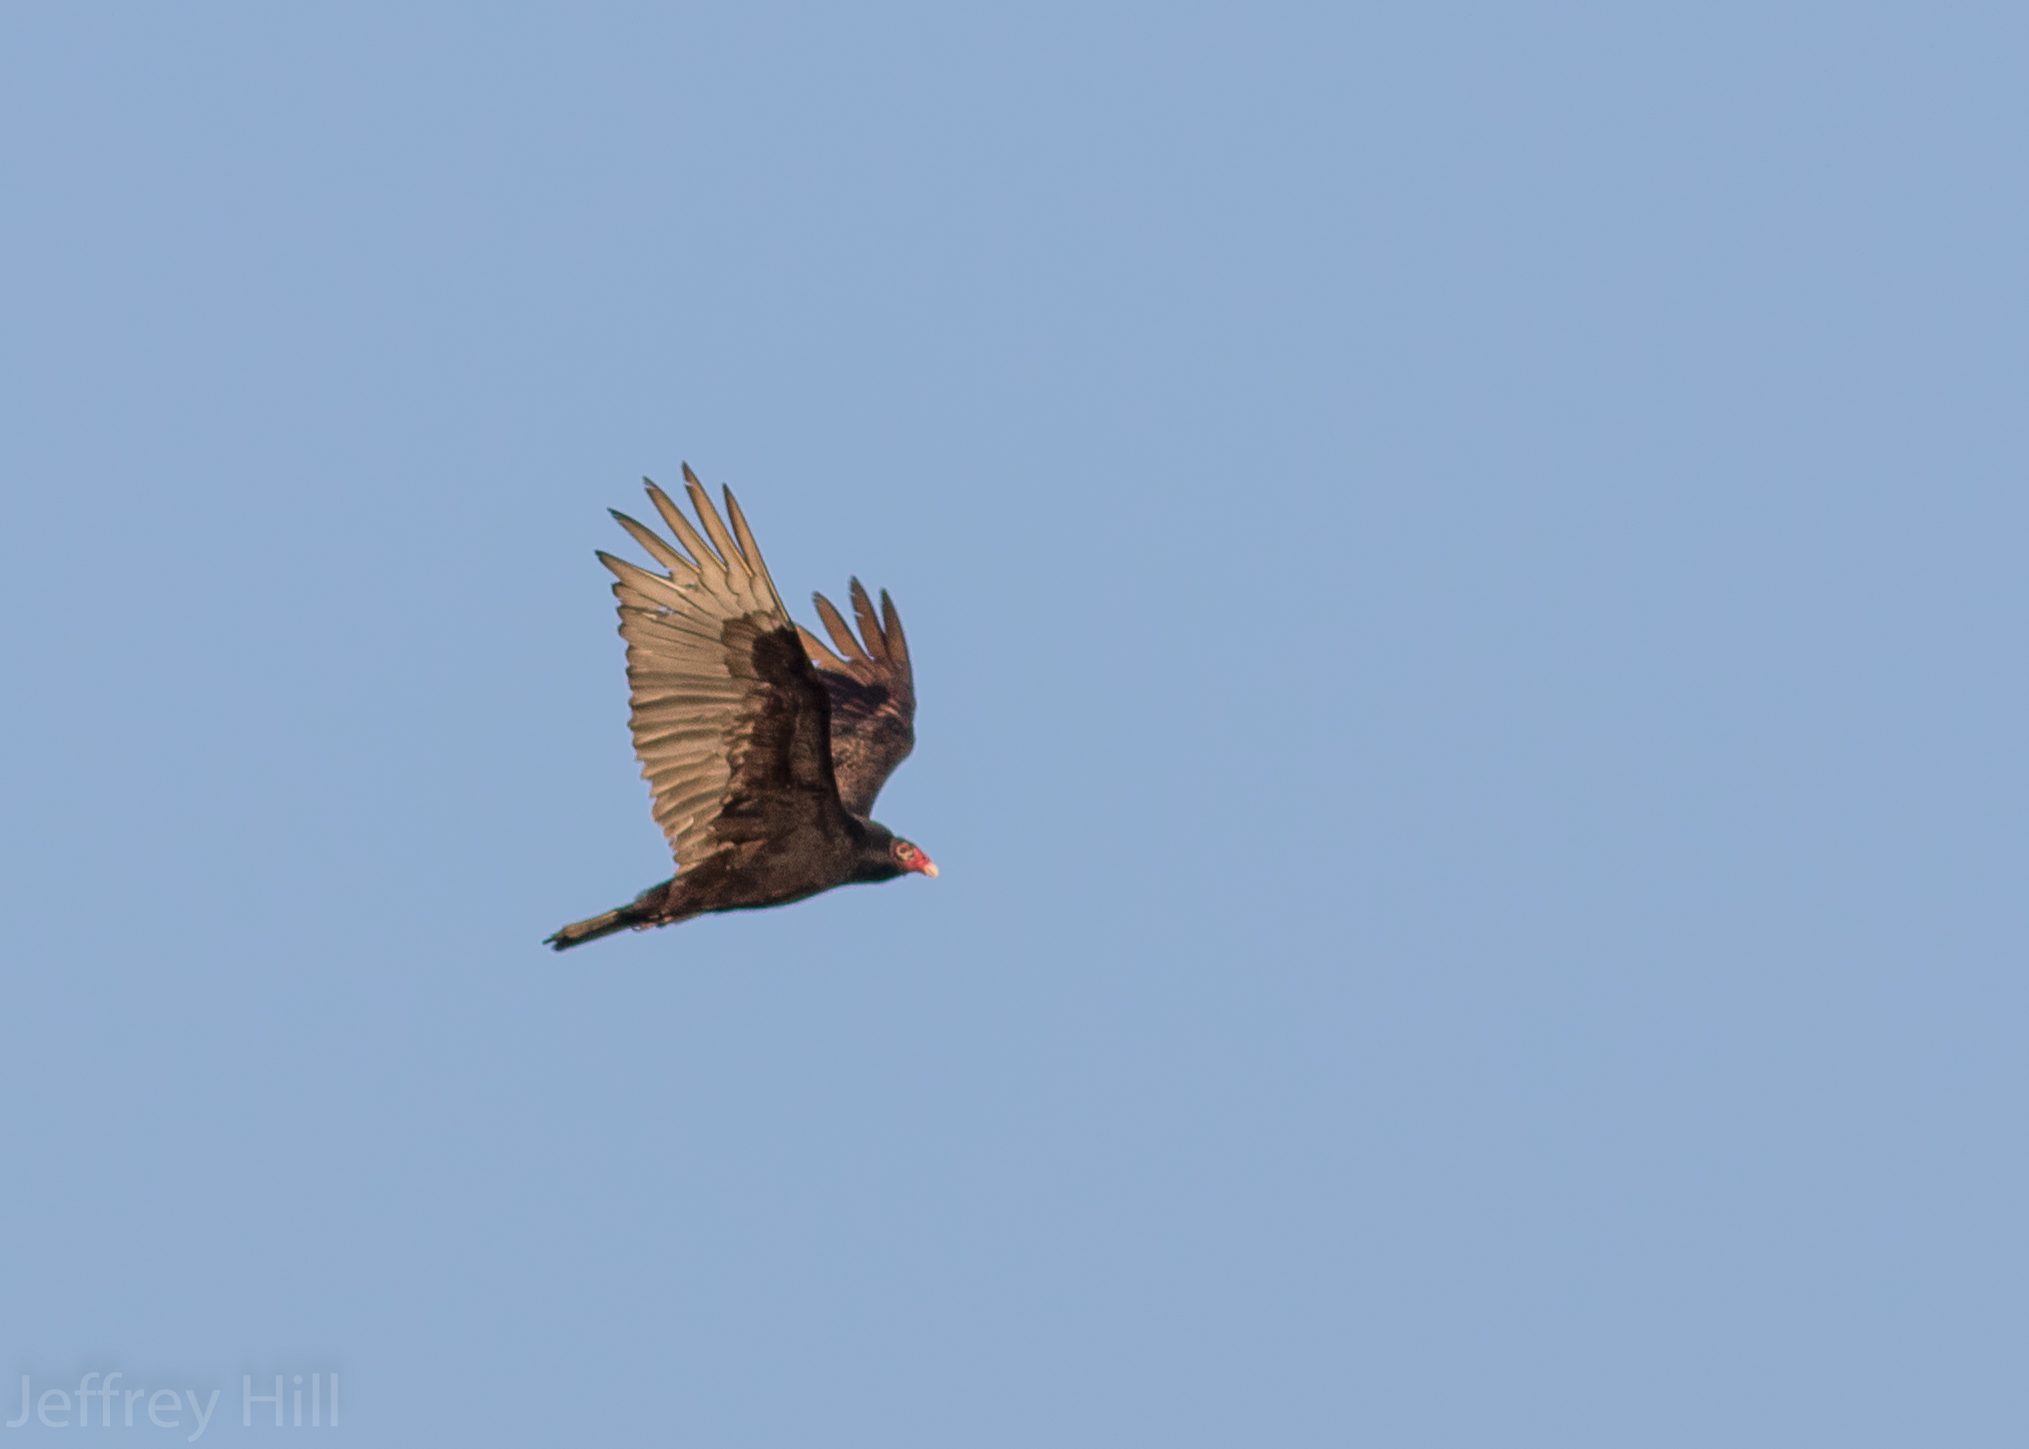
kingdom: Animalia
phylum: Chordata
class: Aves
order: Accipitriformes
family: Cathartidae
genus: Cathartes
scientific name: Cathartes aura
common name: Turkey vulture
